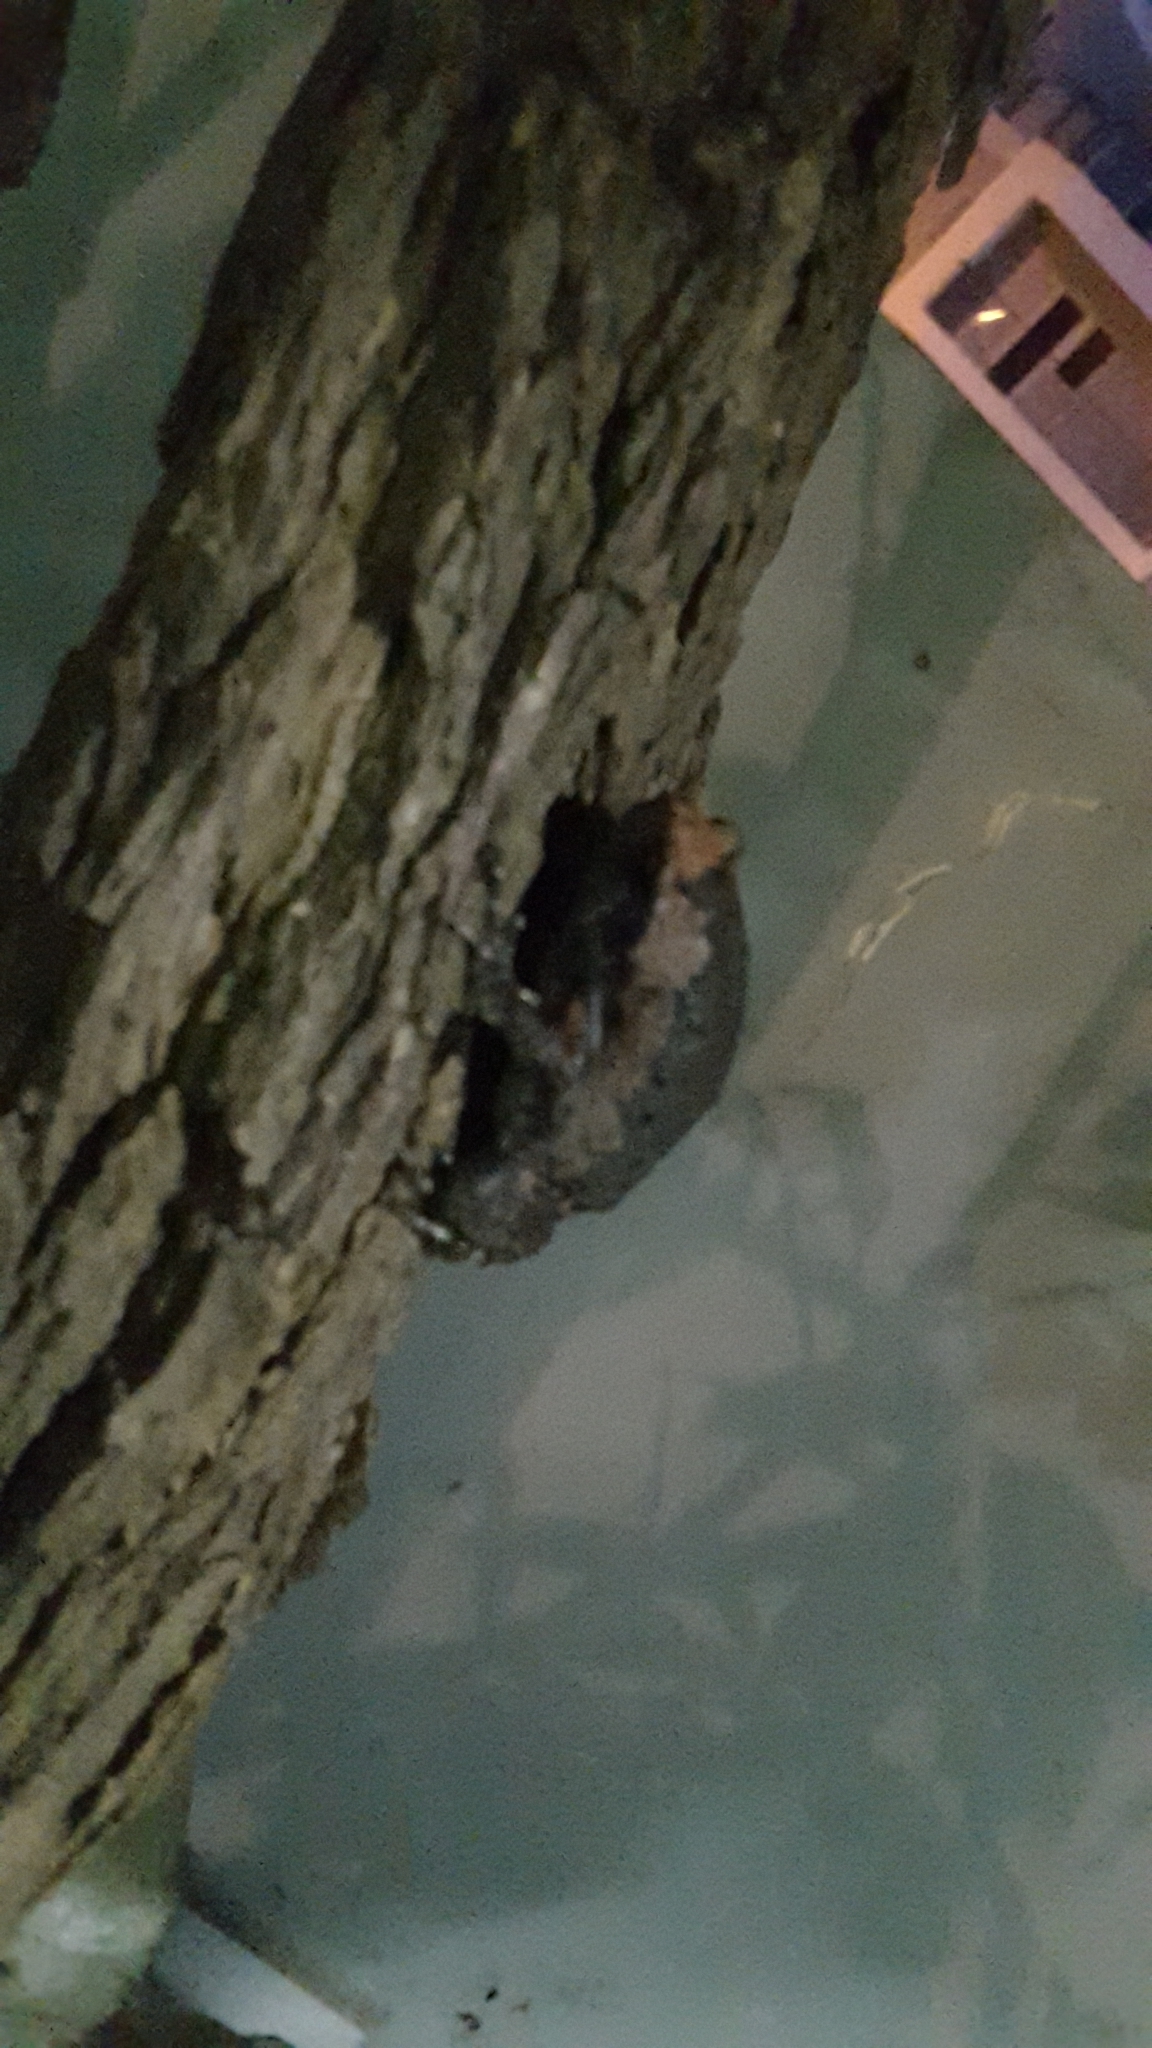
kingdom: Animalia
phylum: Chordata
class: Amphibia
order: Anura
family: Microhylidae
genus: Kaloula
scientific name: Kaloula pulchra
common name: Common,banded bullfrog
